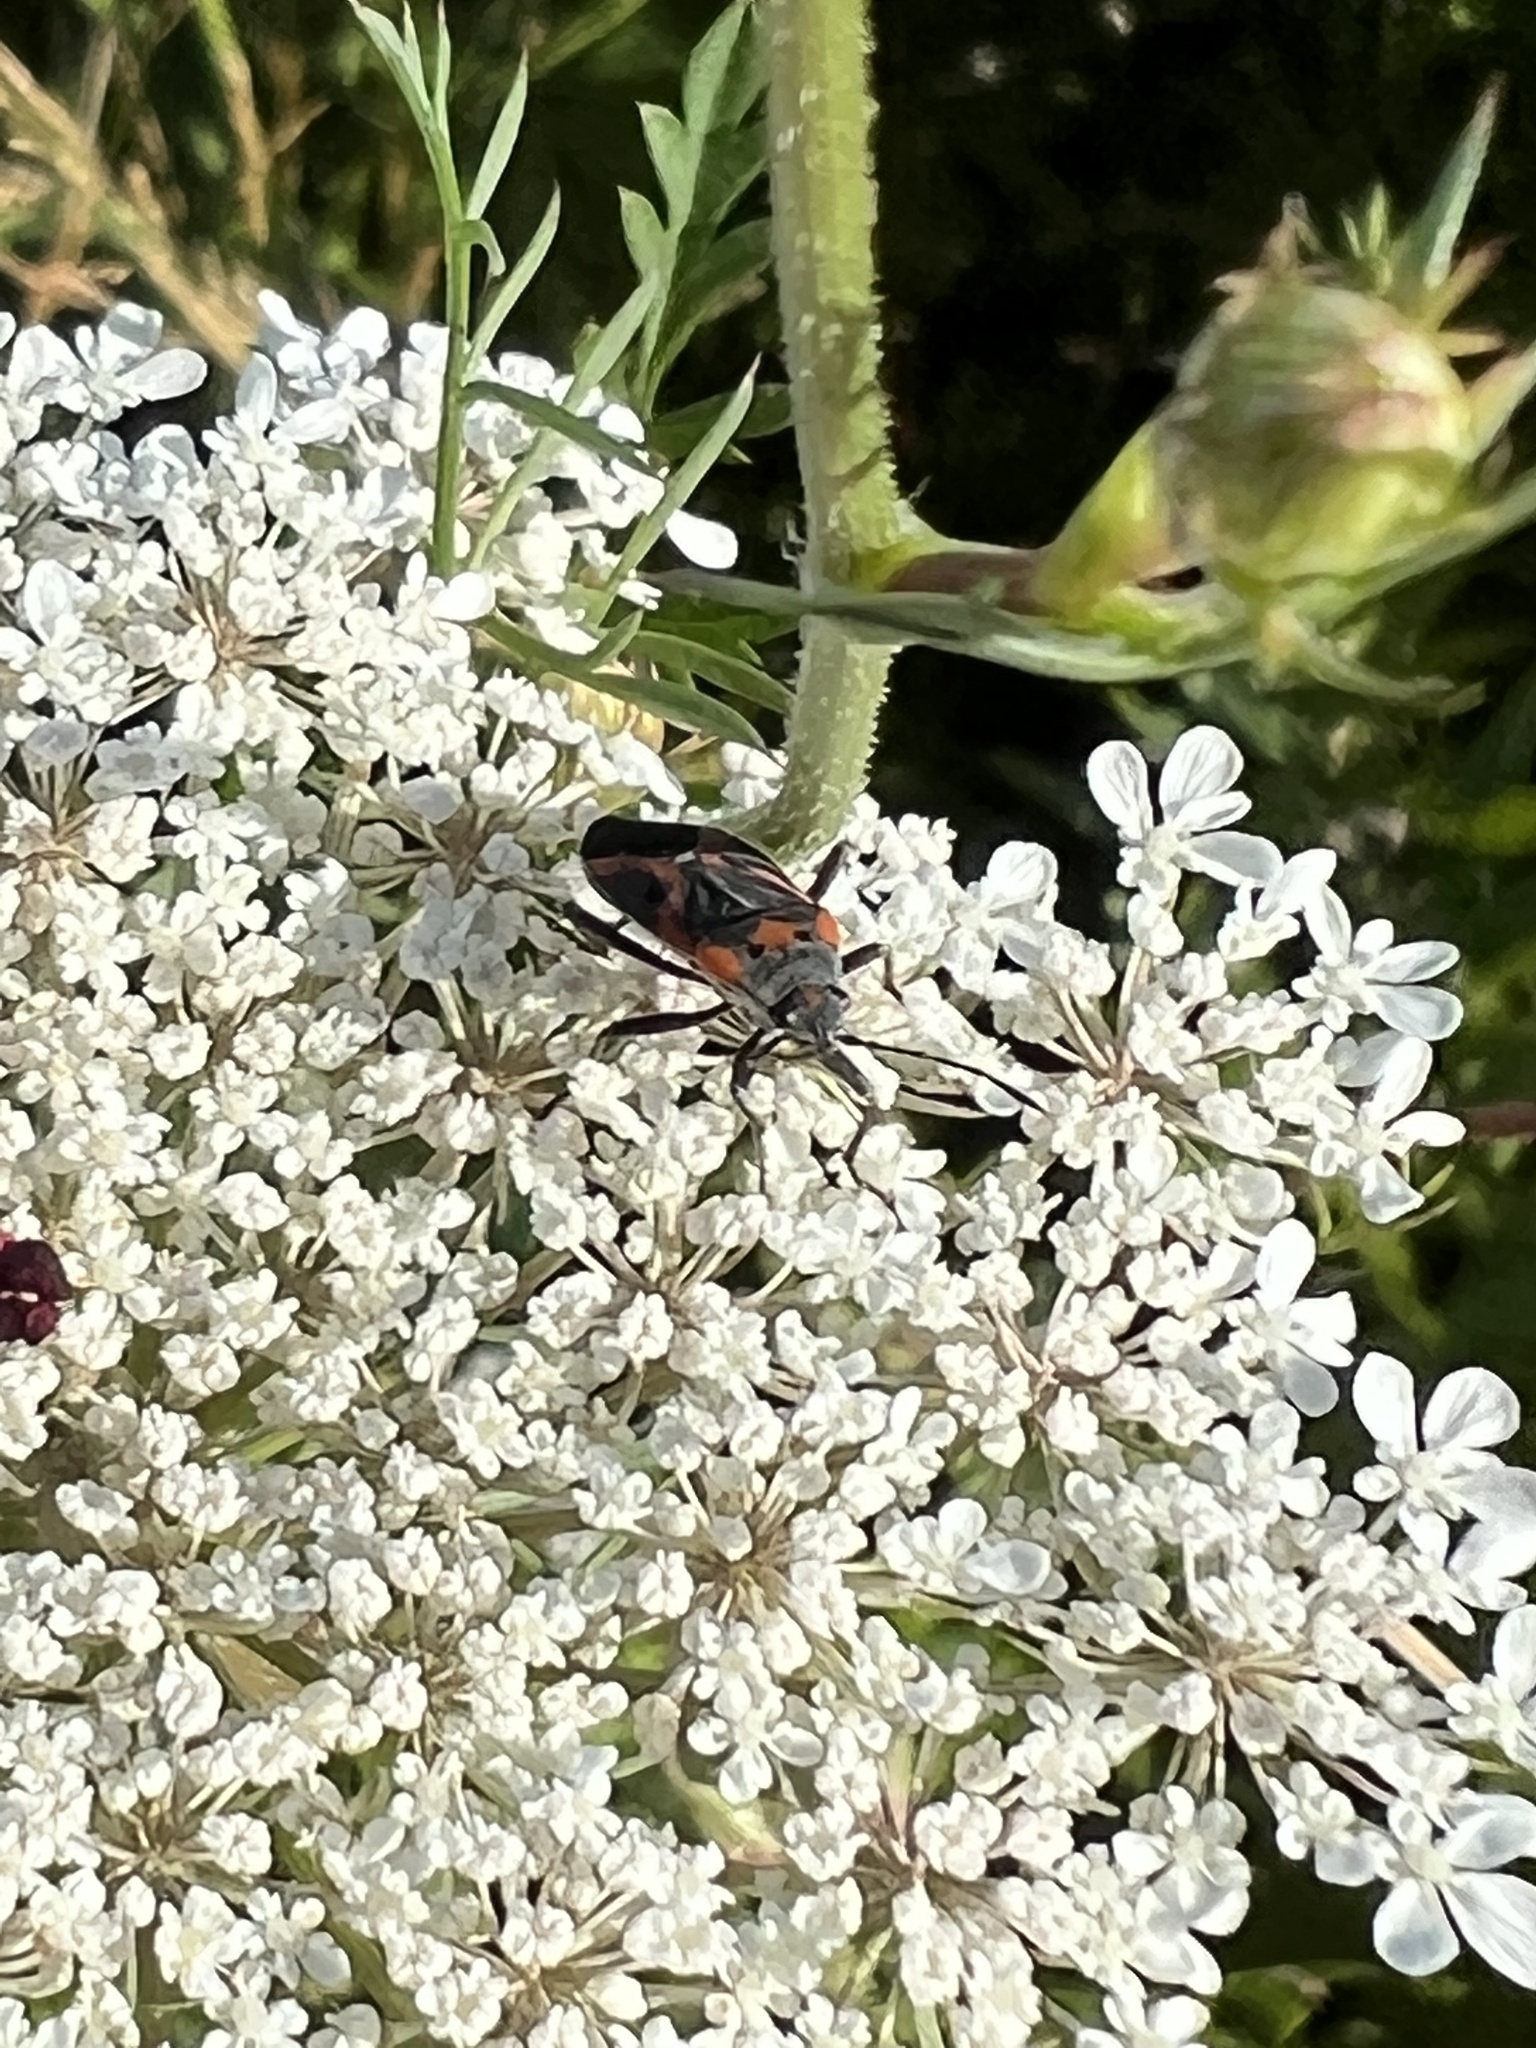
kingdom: Animalia
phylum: Arthropoda
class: Insecta
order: Hemiptera
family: Lygaeidae
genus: Lygaeus
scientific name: Lygaeus kalmii
